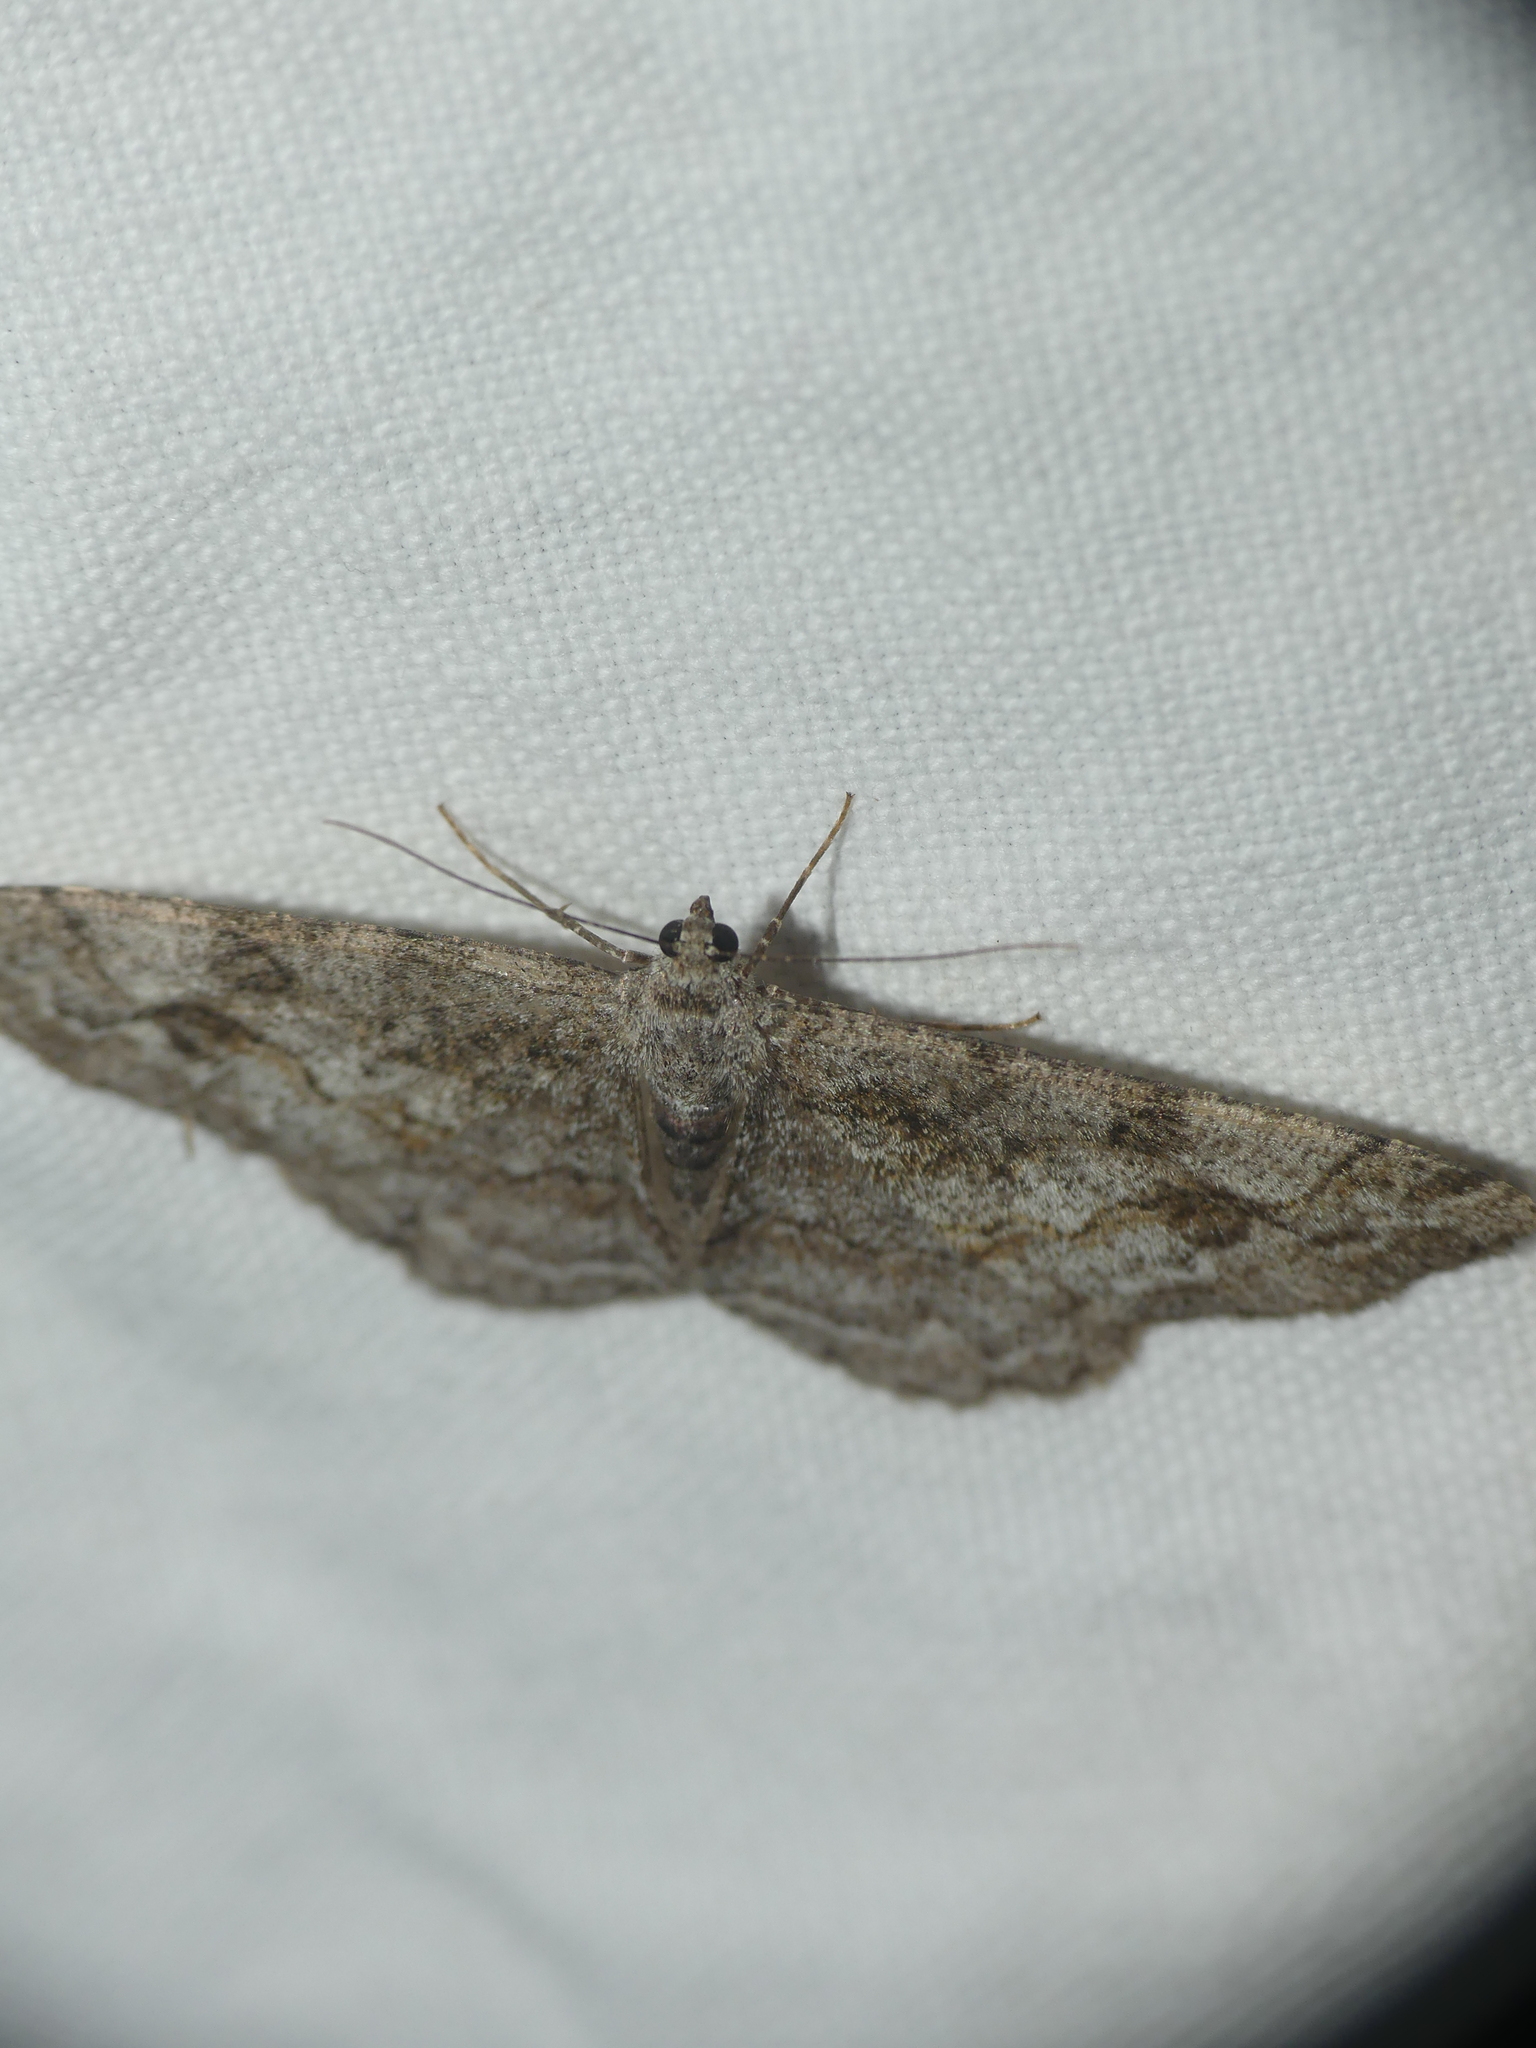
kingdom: Animalia
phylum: Arthropoda
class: Insecta
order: Lepidoptera
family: Geometridae
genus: Alcis
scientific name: Alcis repandata
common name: Mottled beauty
